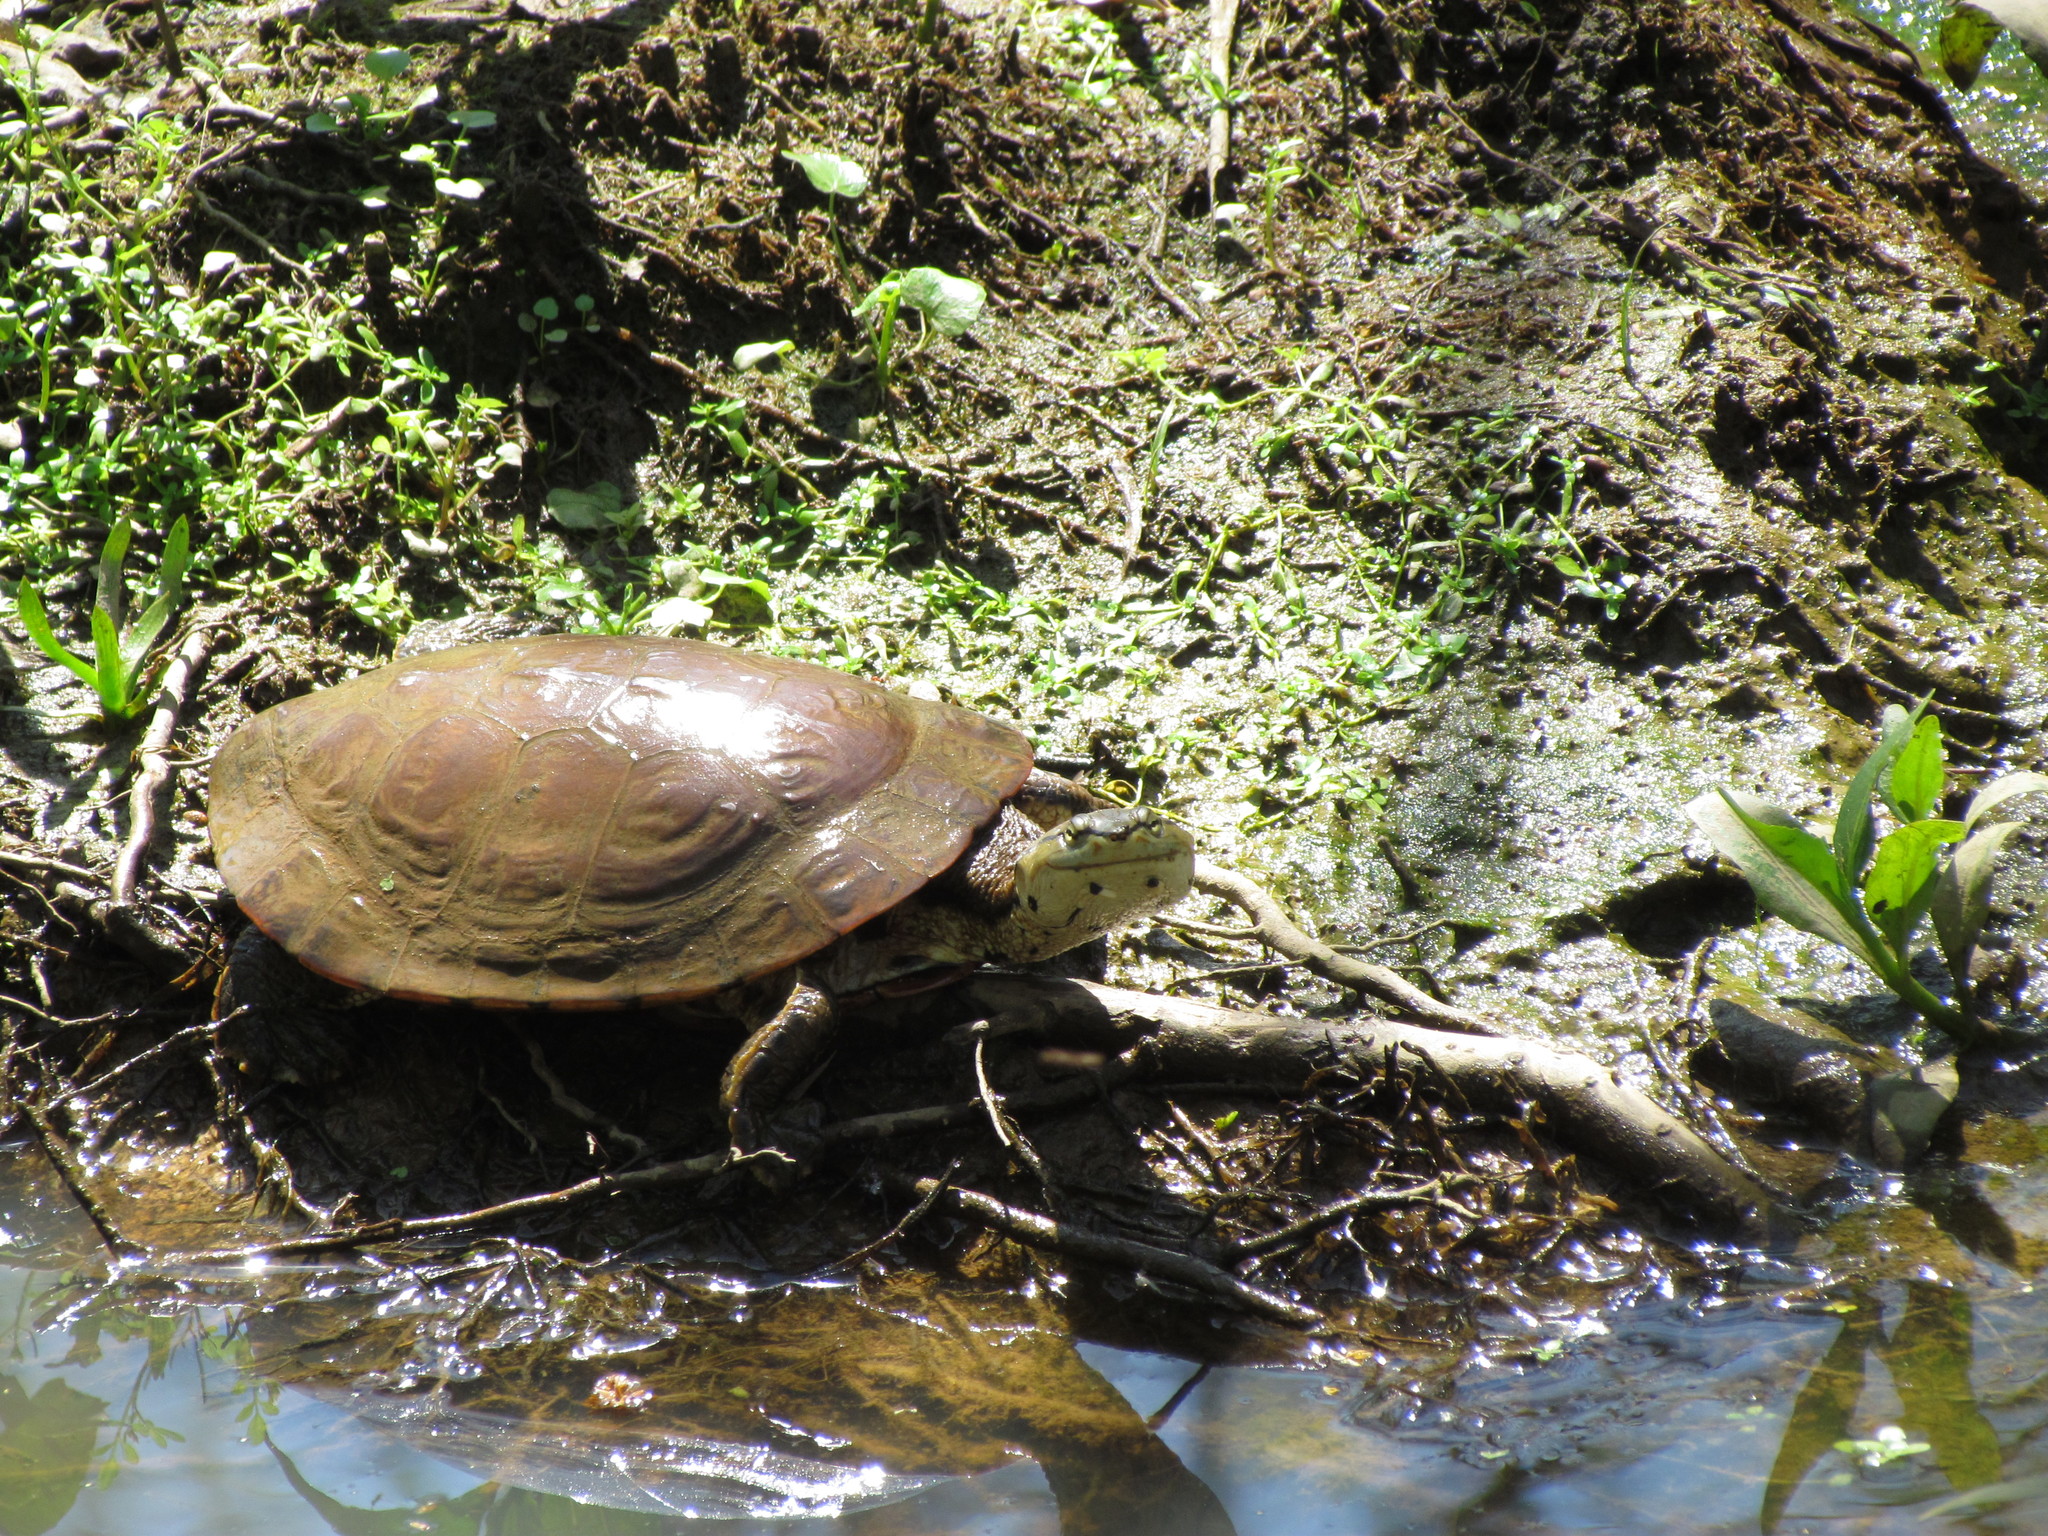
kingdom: Animalia
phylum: Chordata
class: Testudines
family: Chelidae
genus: Phrynops
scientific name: Phrynops hilarii
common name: Side-necked turtle of saint hillaire
